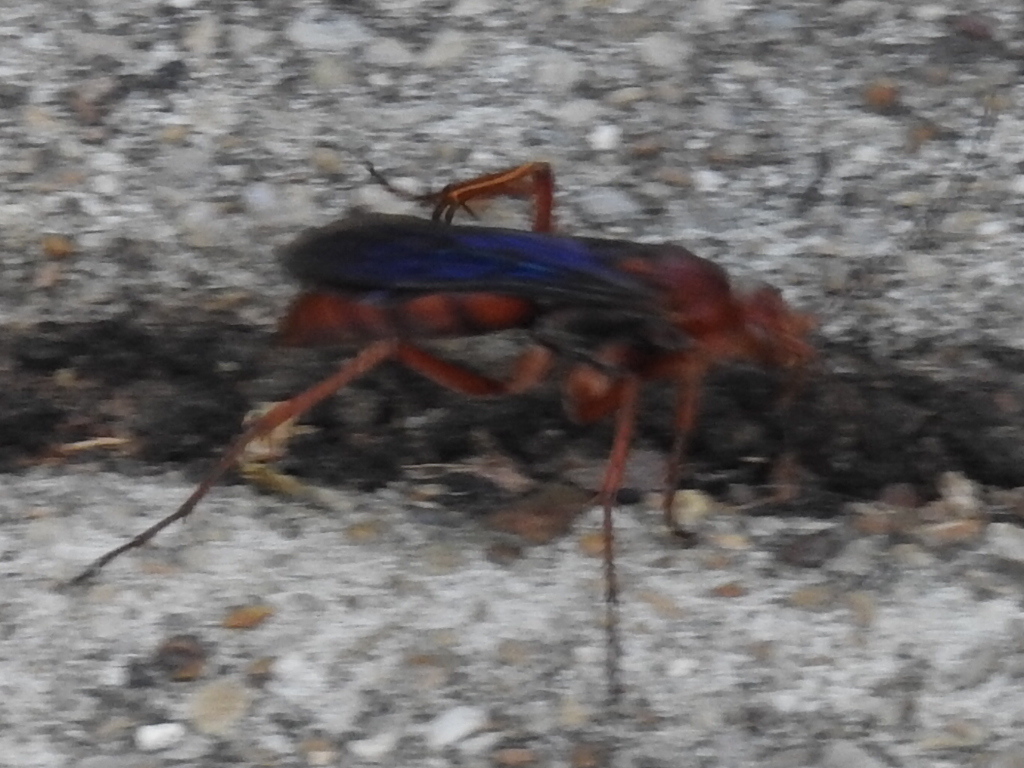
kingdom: Animalia
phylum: Arthropoda
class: Insecta
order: Hymenoptera
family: Pompilidae
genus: Tachypompilus
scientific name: Tachypompilus ferrugineus
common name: Rusty spider wasp
